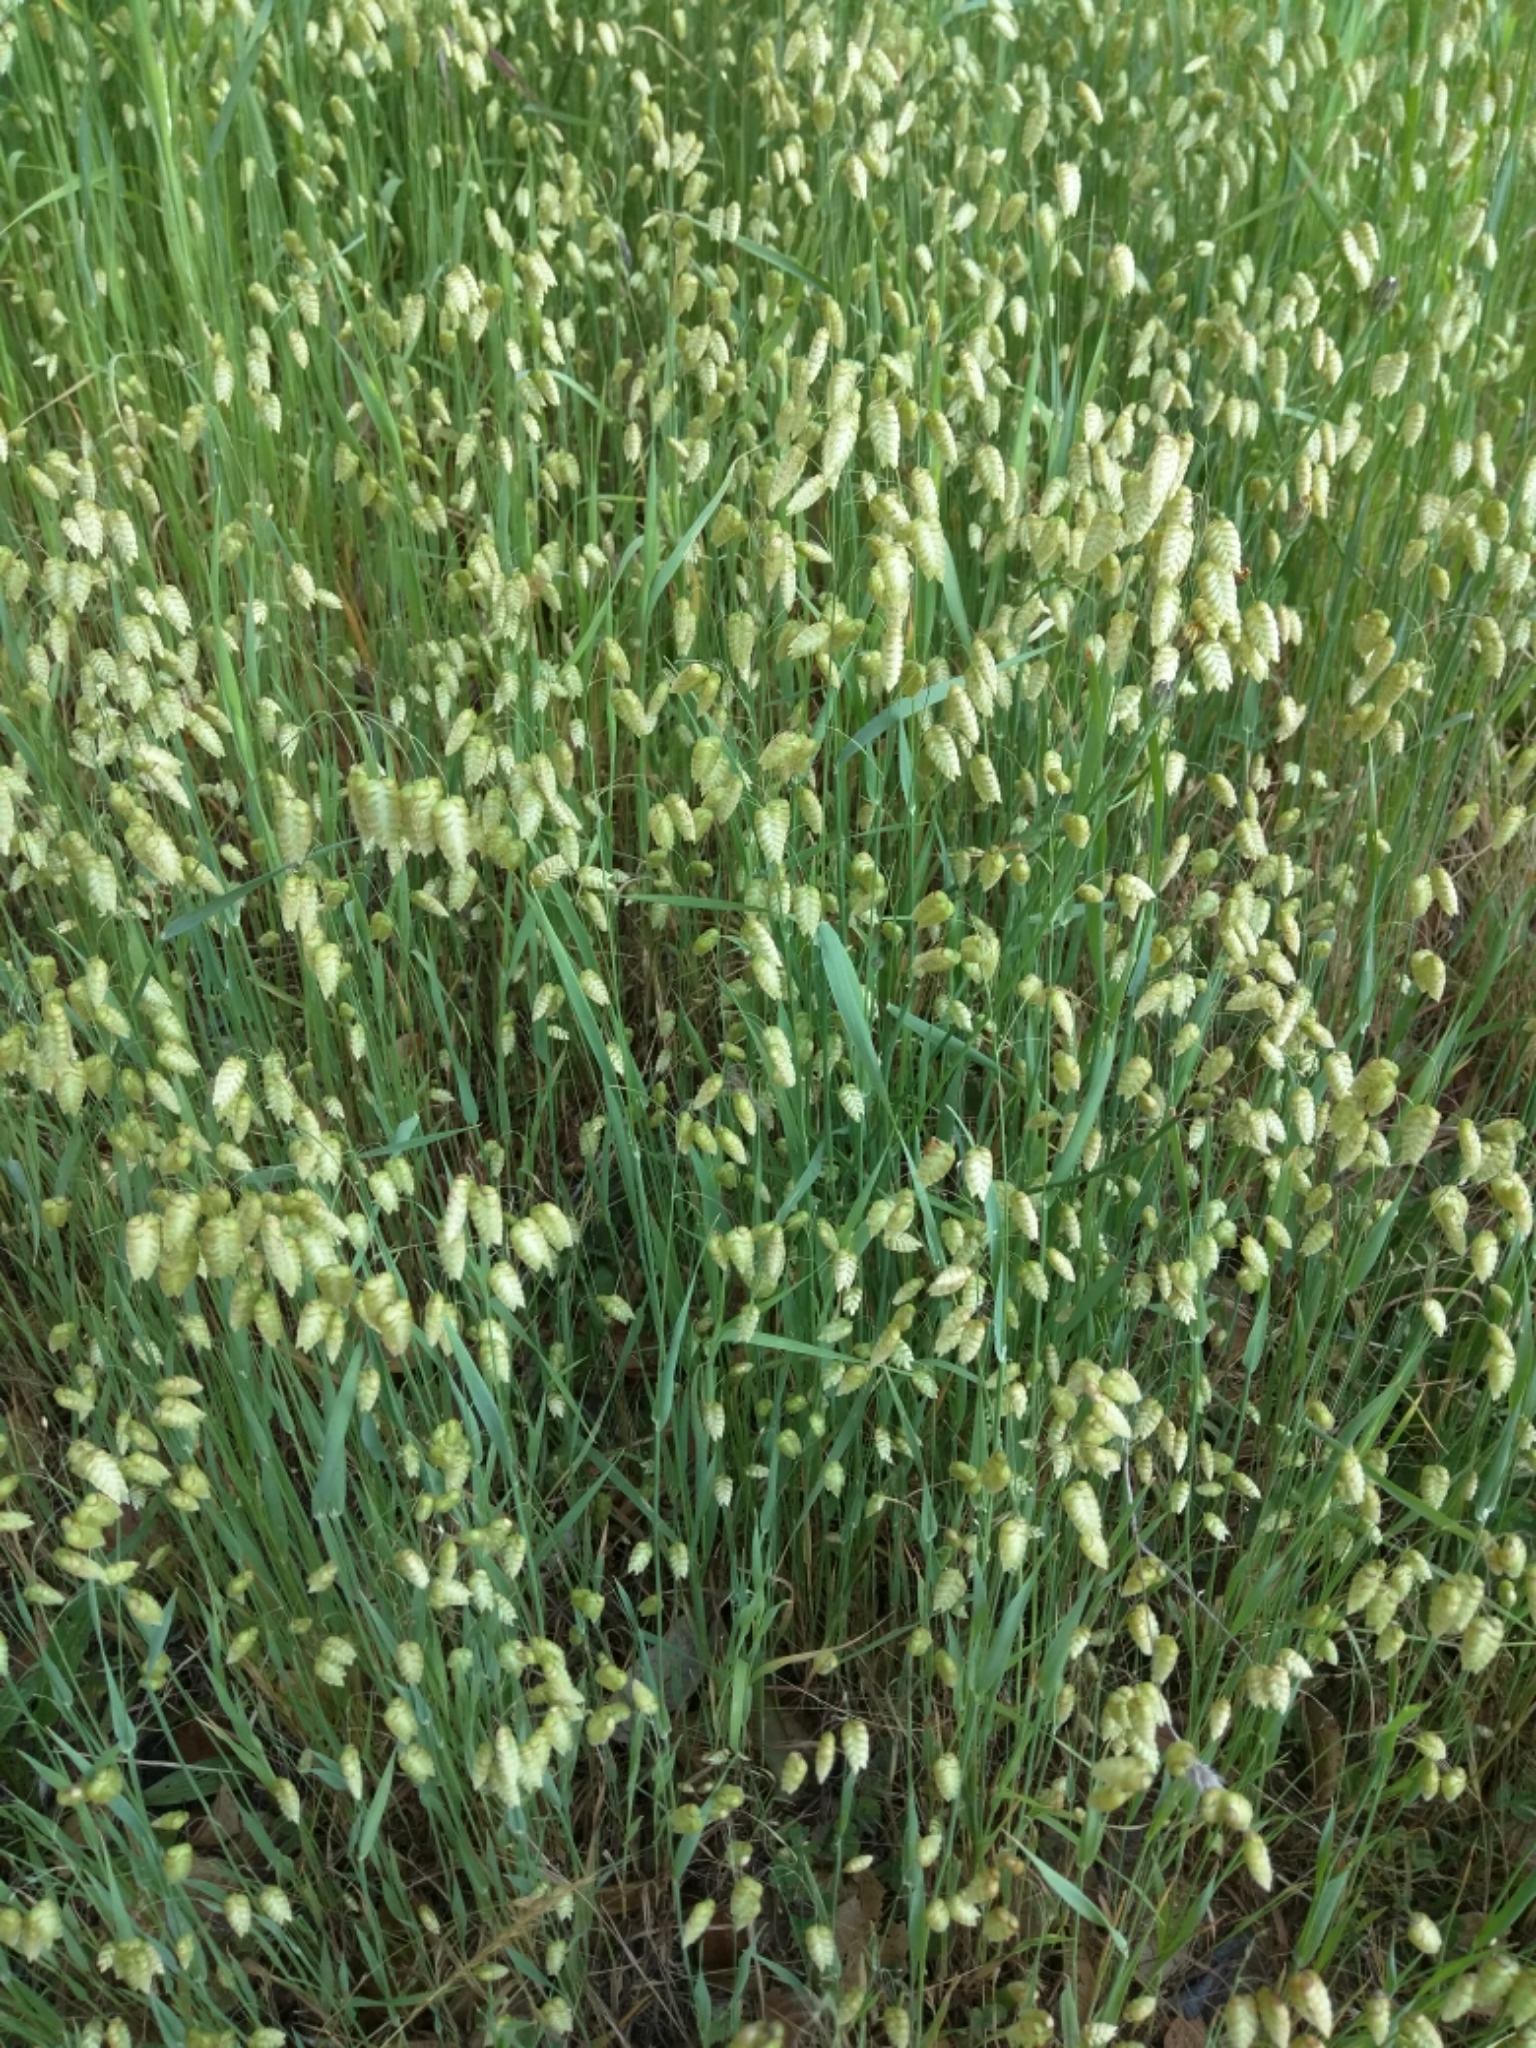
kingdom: Plantae
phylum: Tracheophyta
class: Liliopsida
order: Poales
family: Poaceae
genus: Briza
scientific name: Briza maxima
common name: Big quakinggrass
